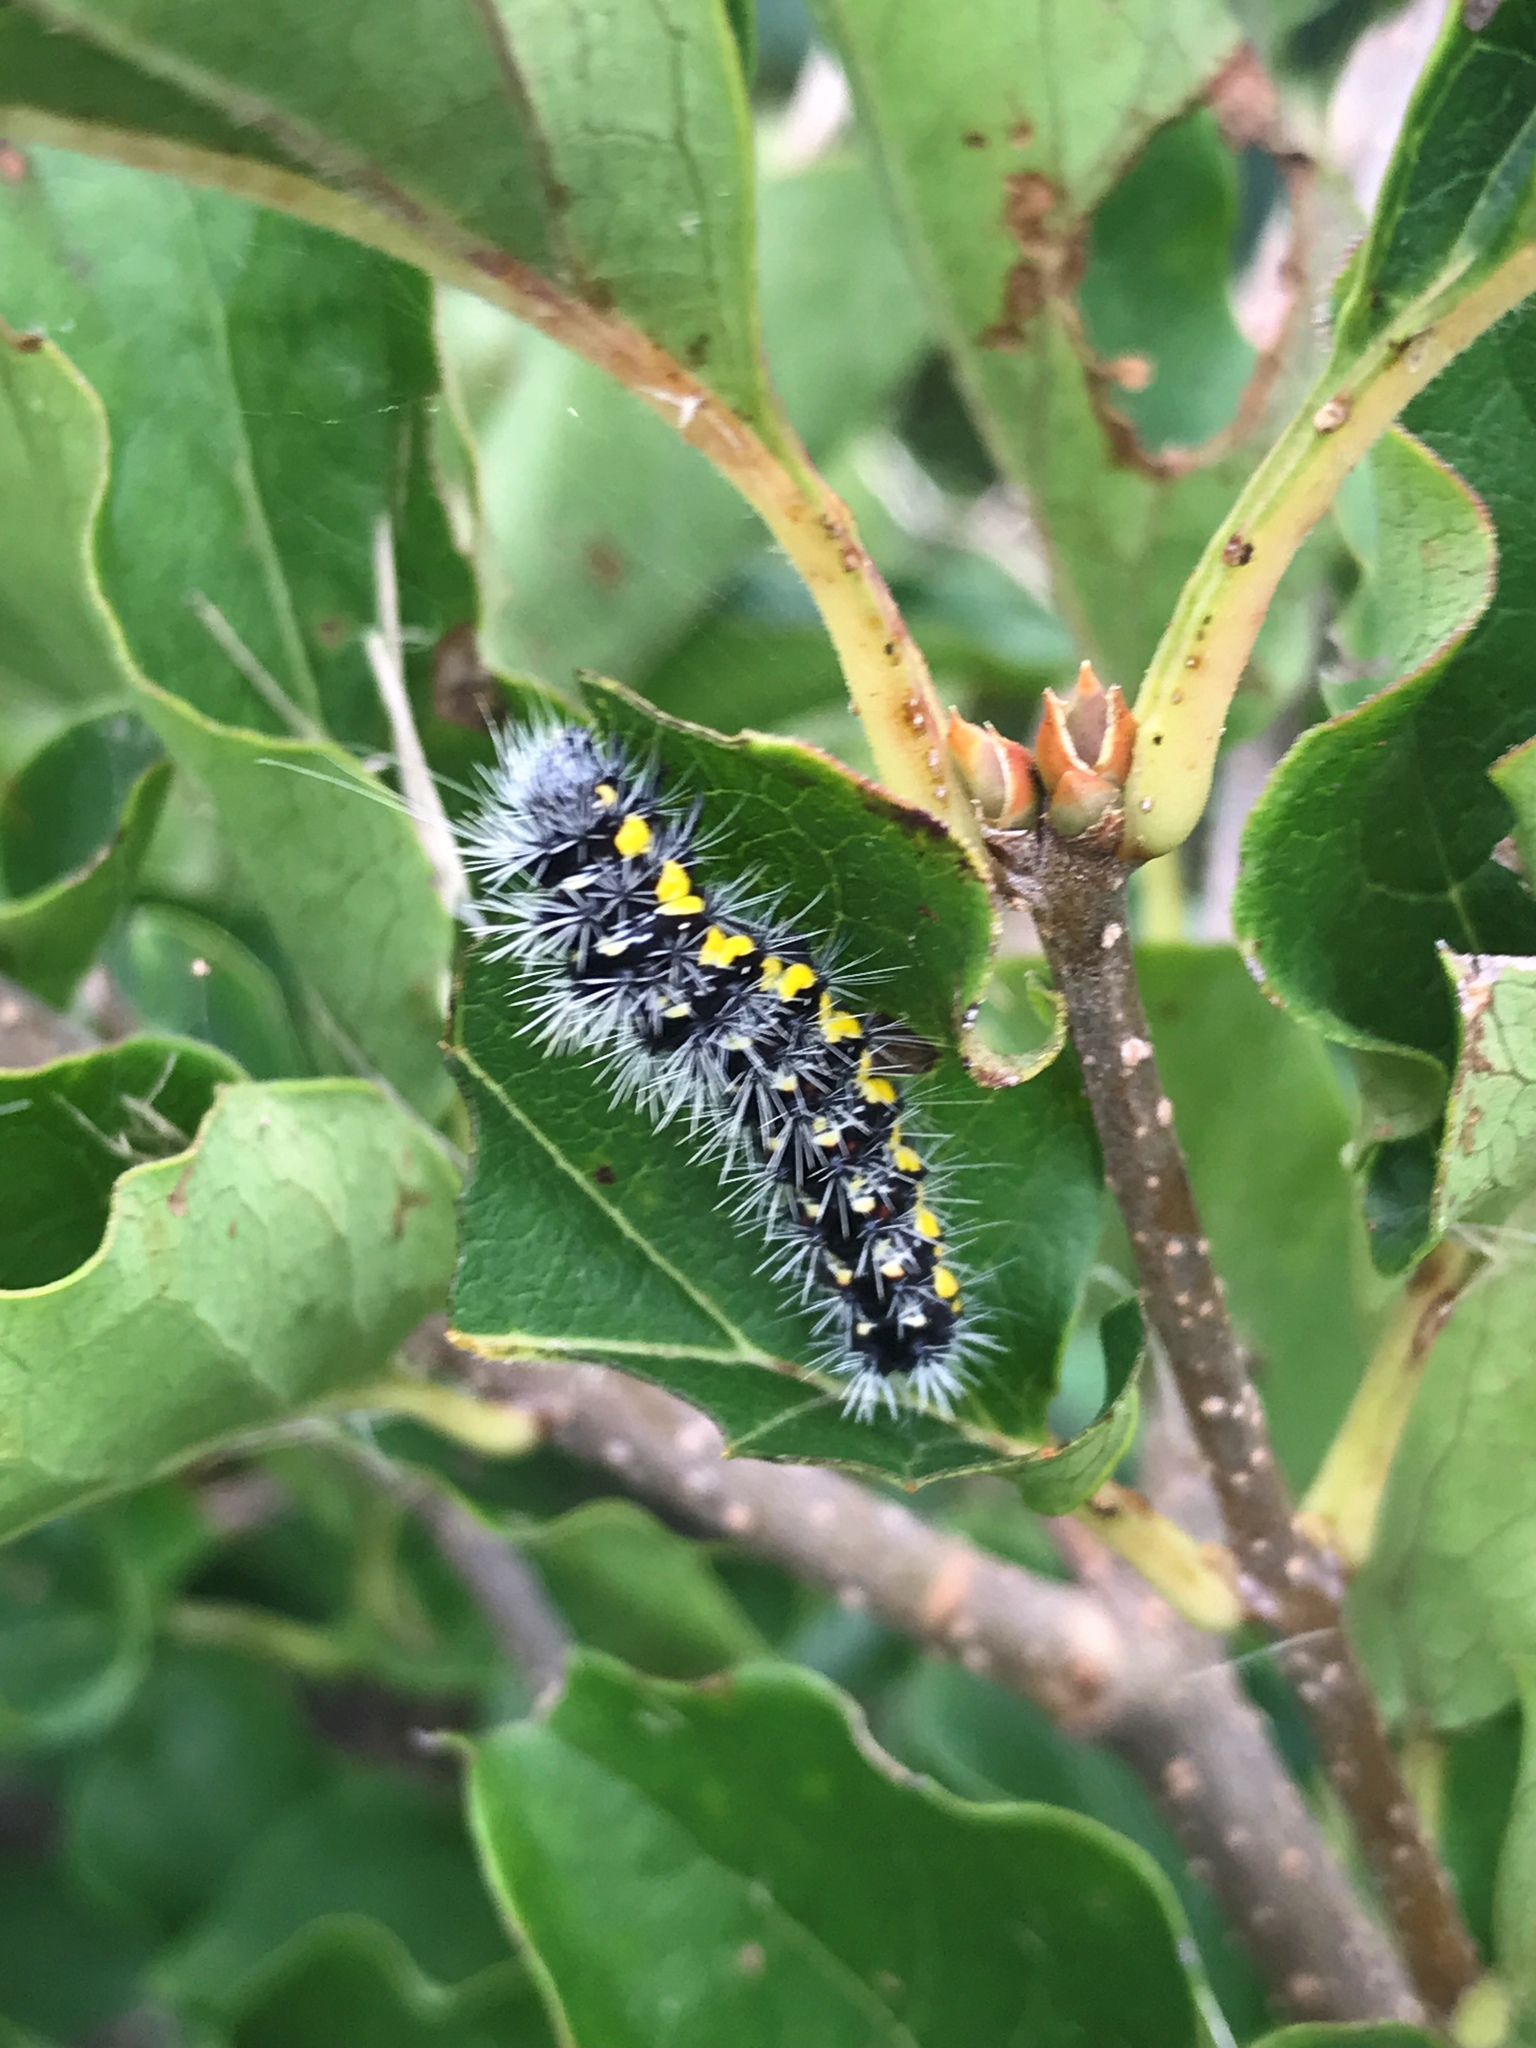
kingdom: Animalia
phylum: Arthropoda
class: Insecta
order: Lepidoptera
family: Noctuidae
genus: Acronicta
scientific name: Acronicta oblinita
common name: Smeared dagger
